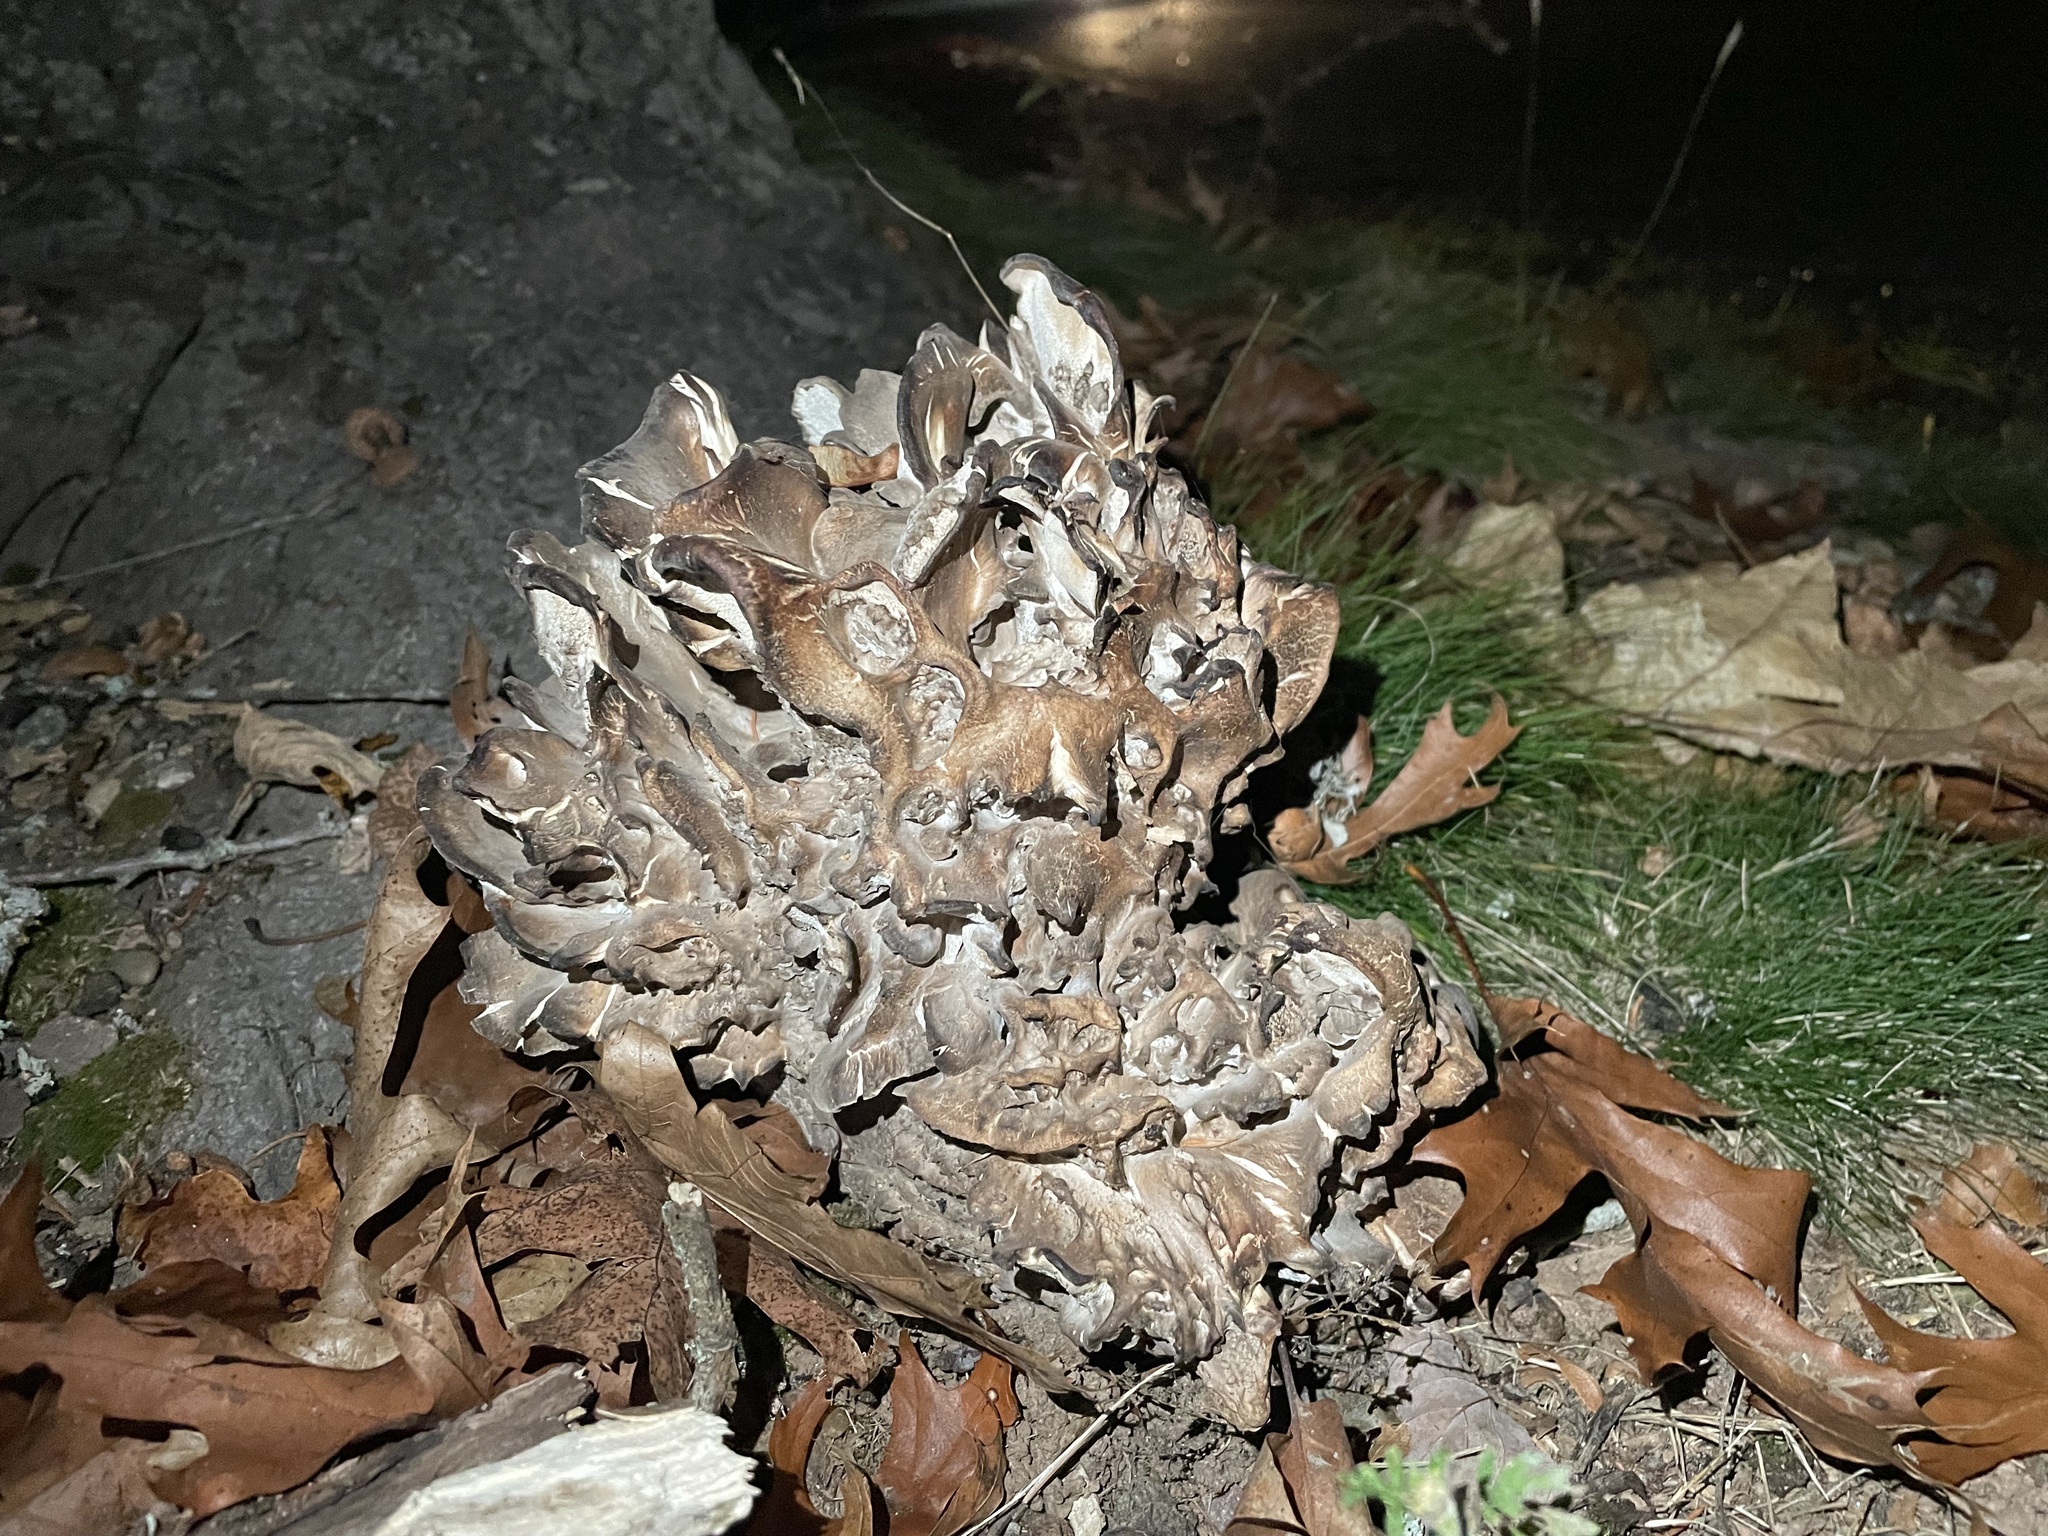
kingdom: Fungi
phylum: Basidiomycota
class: Agaricomycetes
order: Polyporales
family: Grifolaceae
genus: Grifola
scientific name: Grifola frondosa
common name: Hen of the woods
